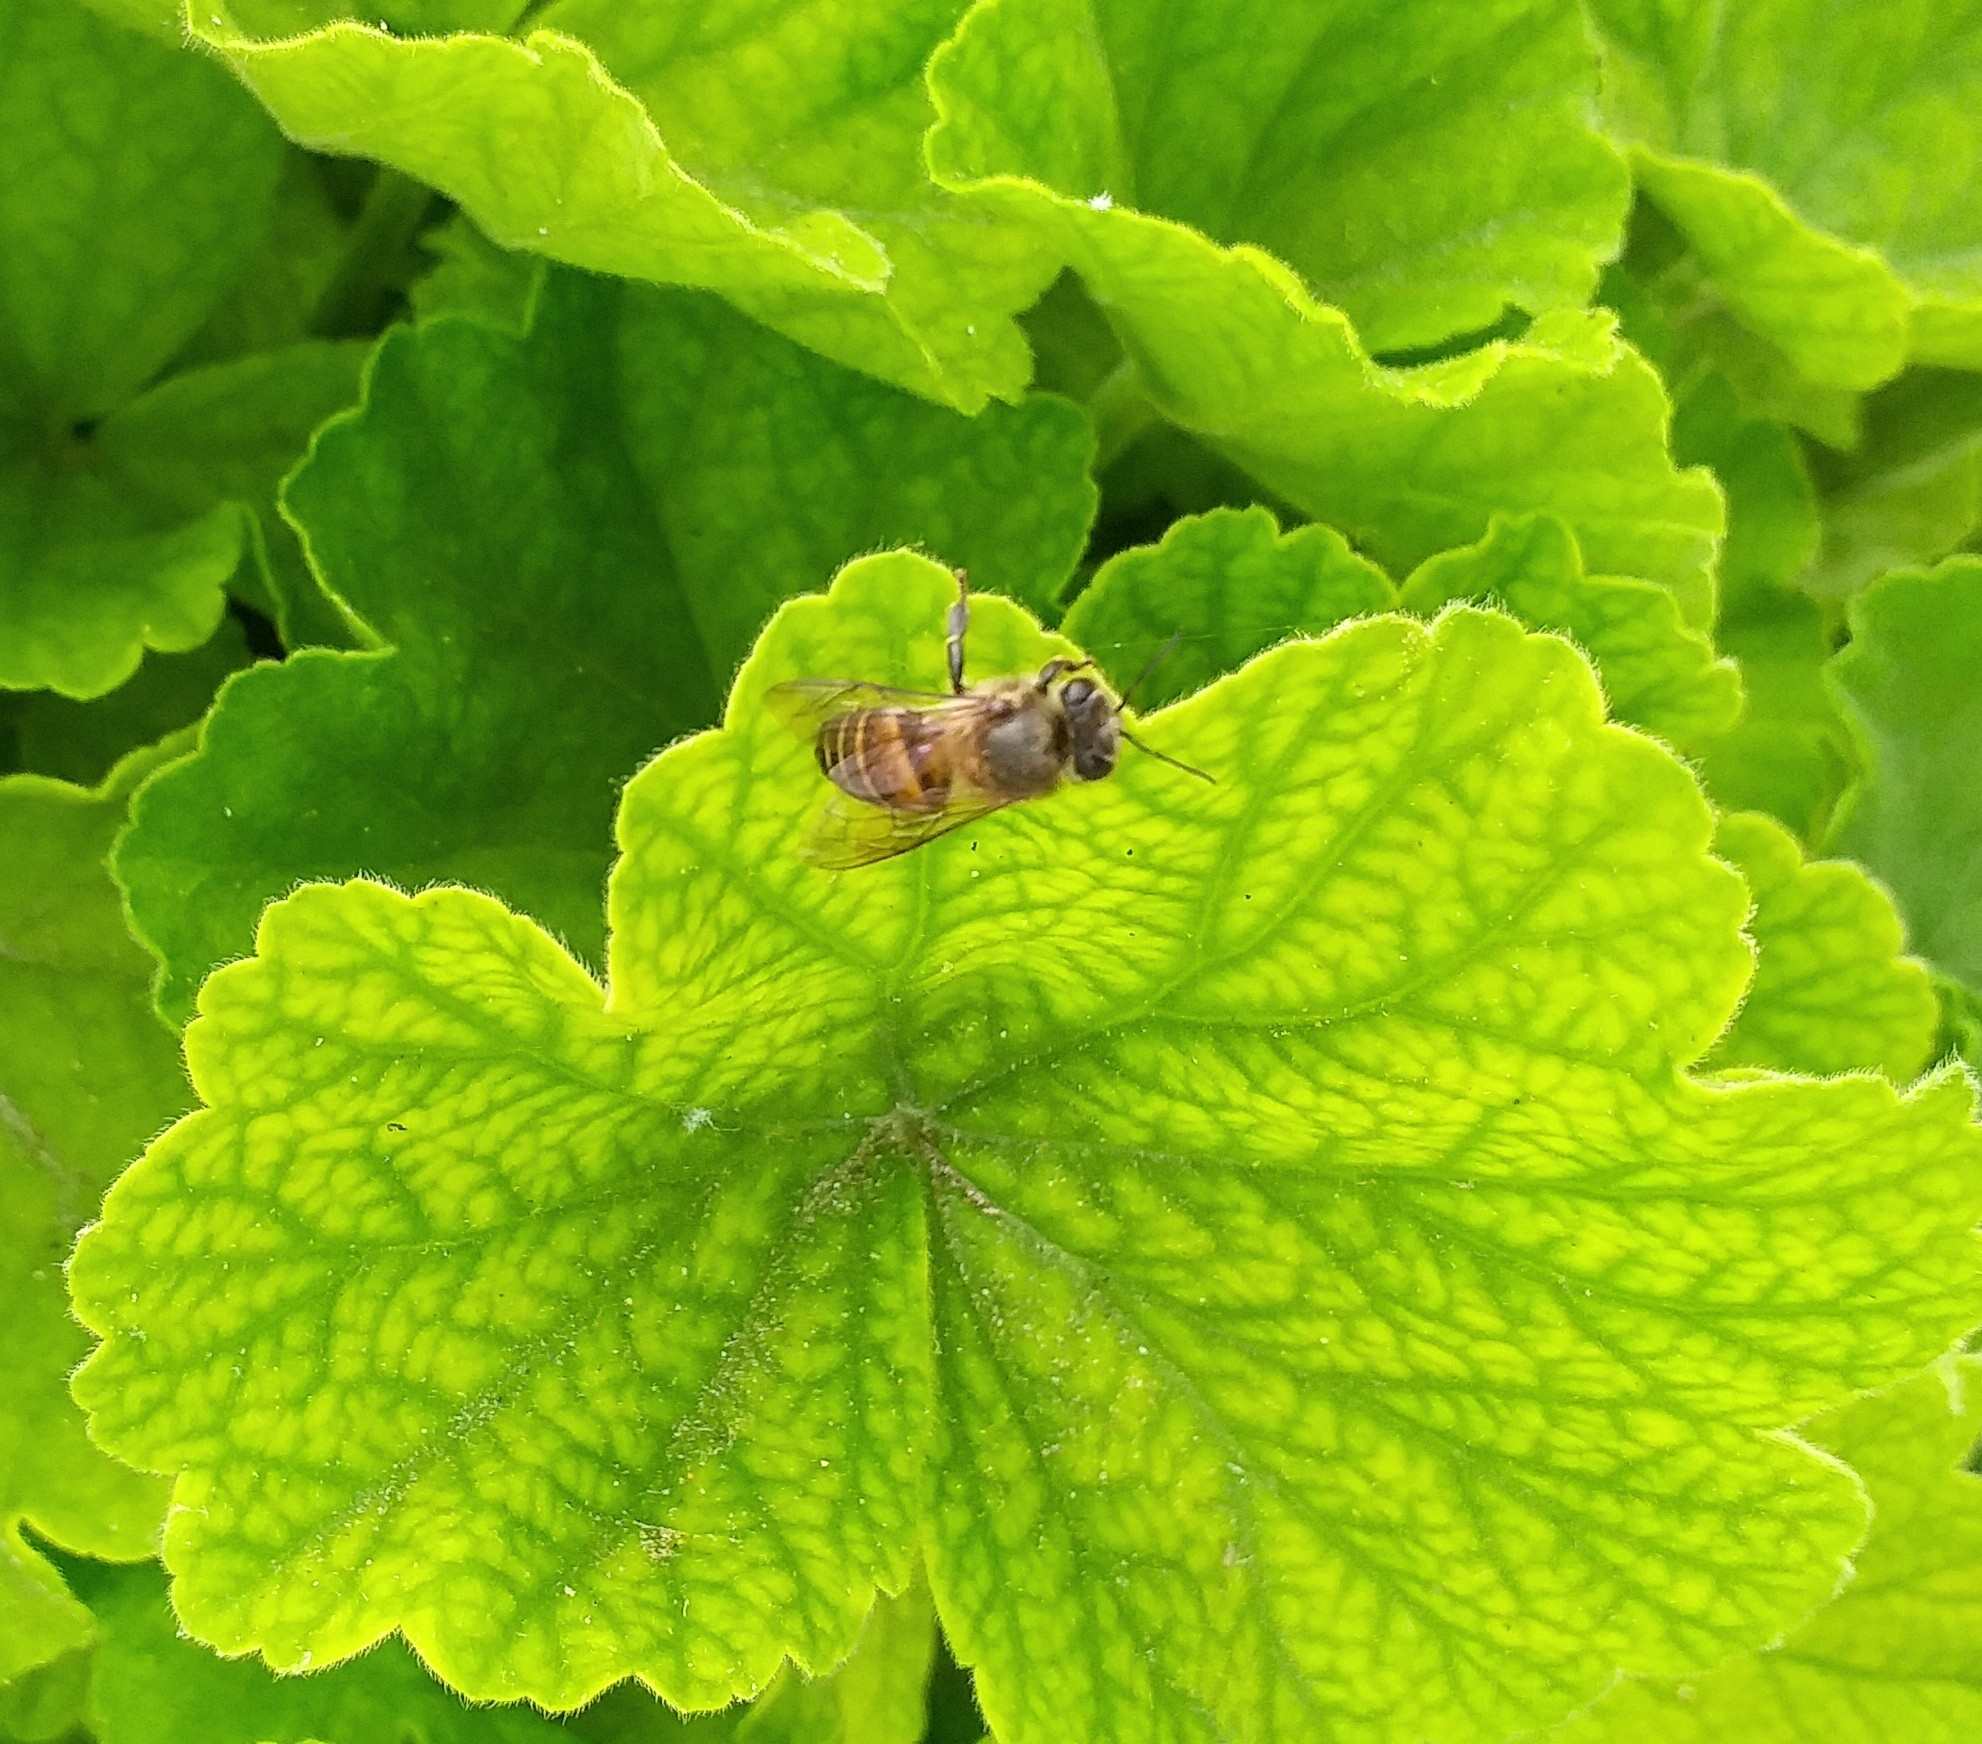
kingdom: Animalia
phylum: Arthropoda
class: Insecta
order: Hymenoptera
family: Apidae
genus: Apis
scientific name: Apis cerana
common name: Honey bee
